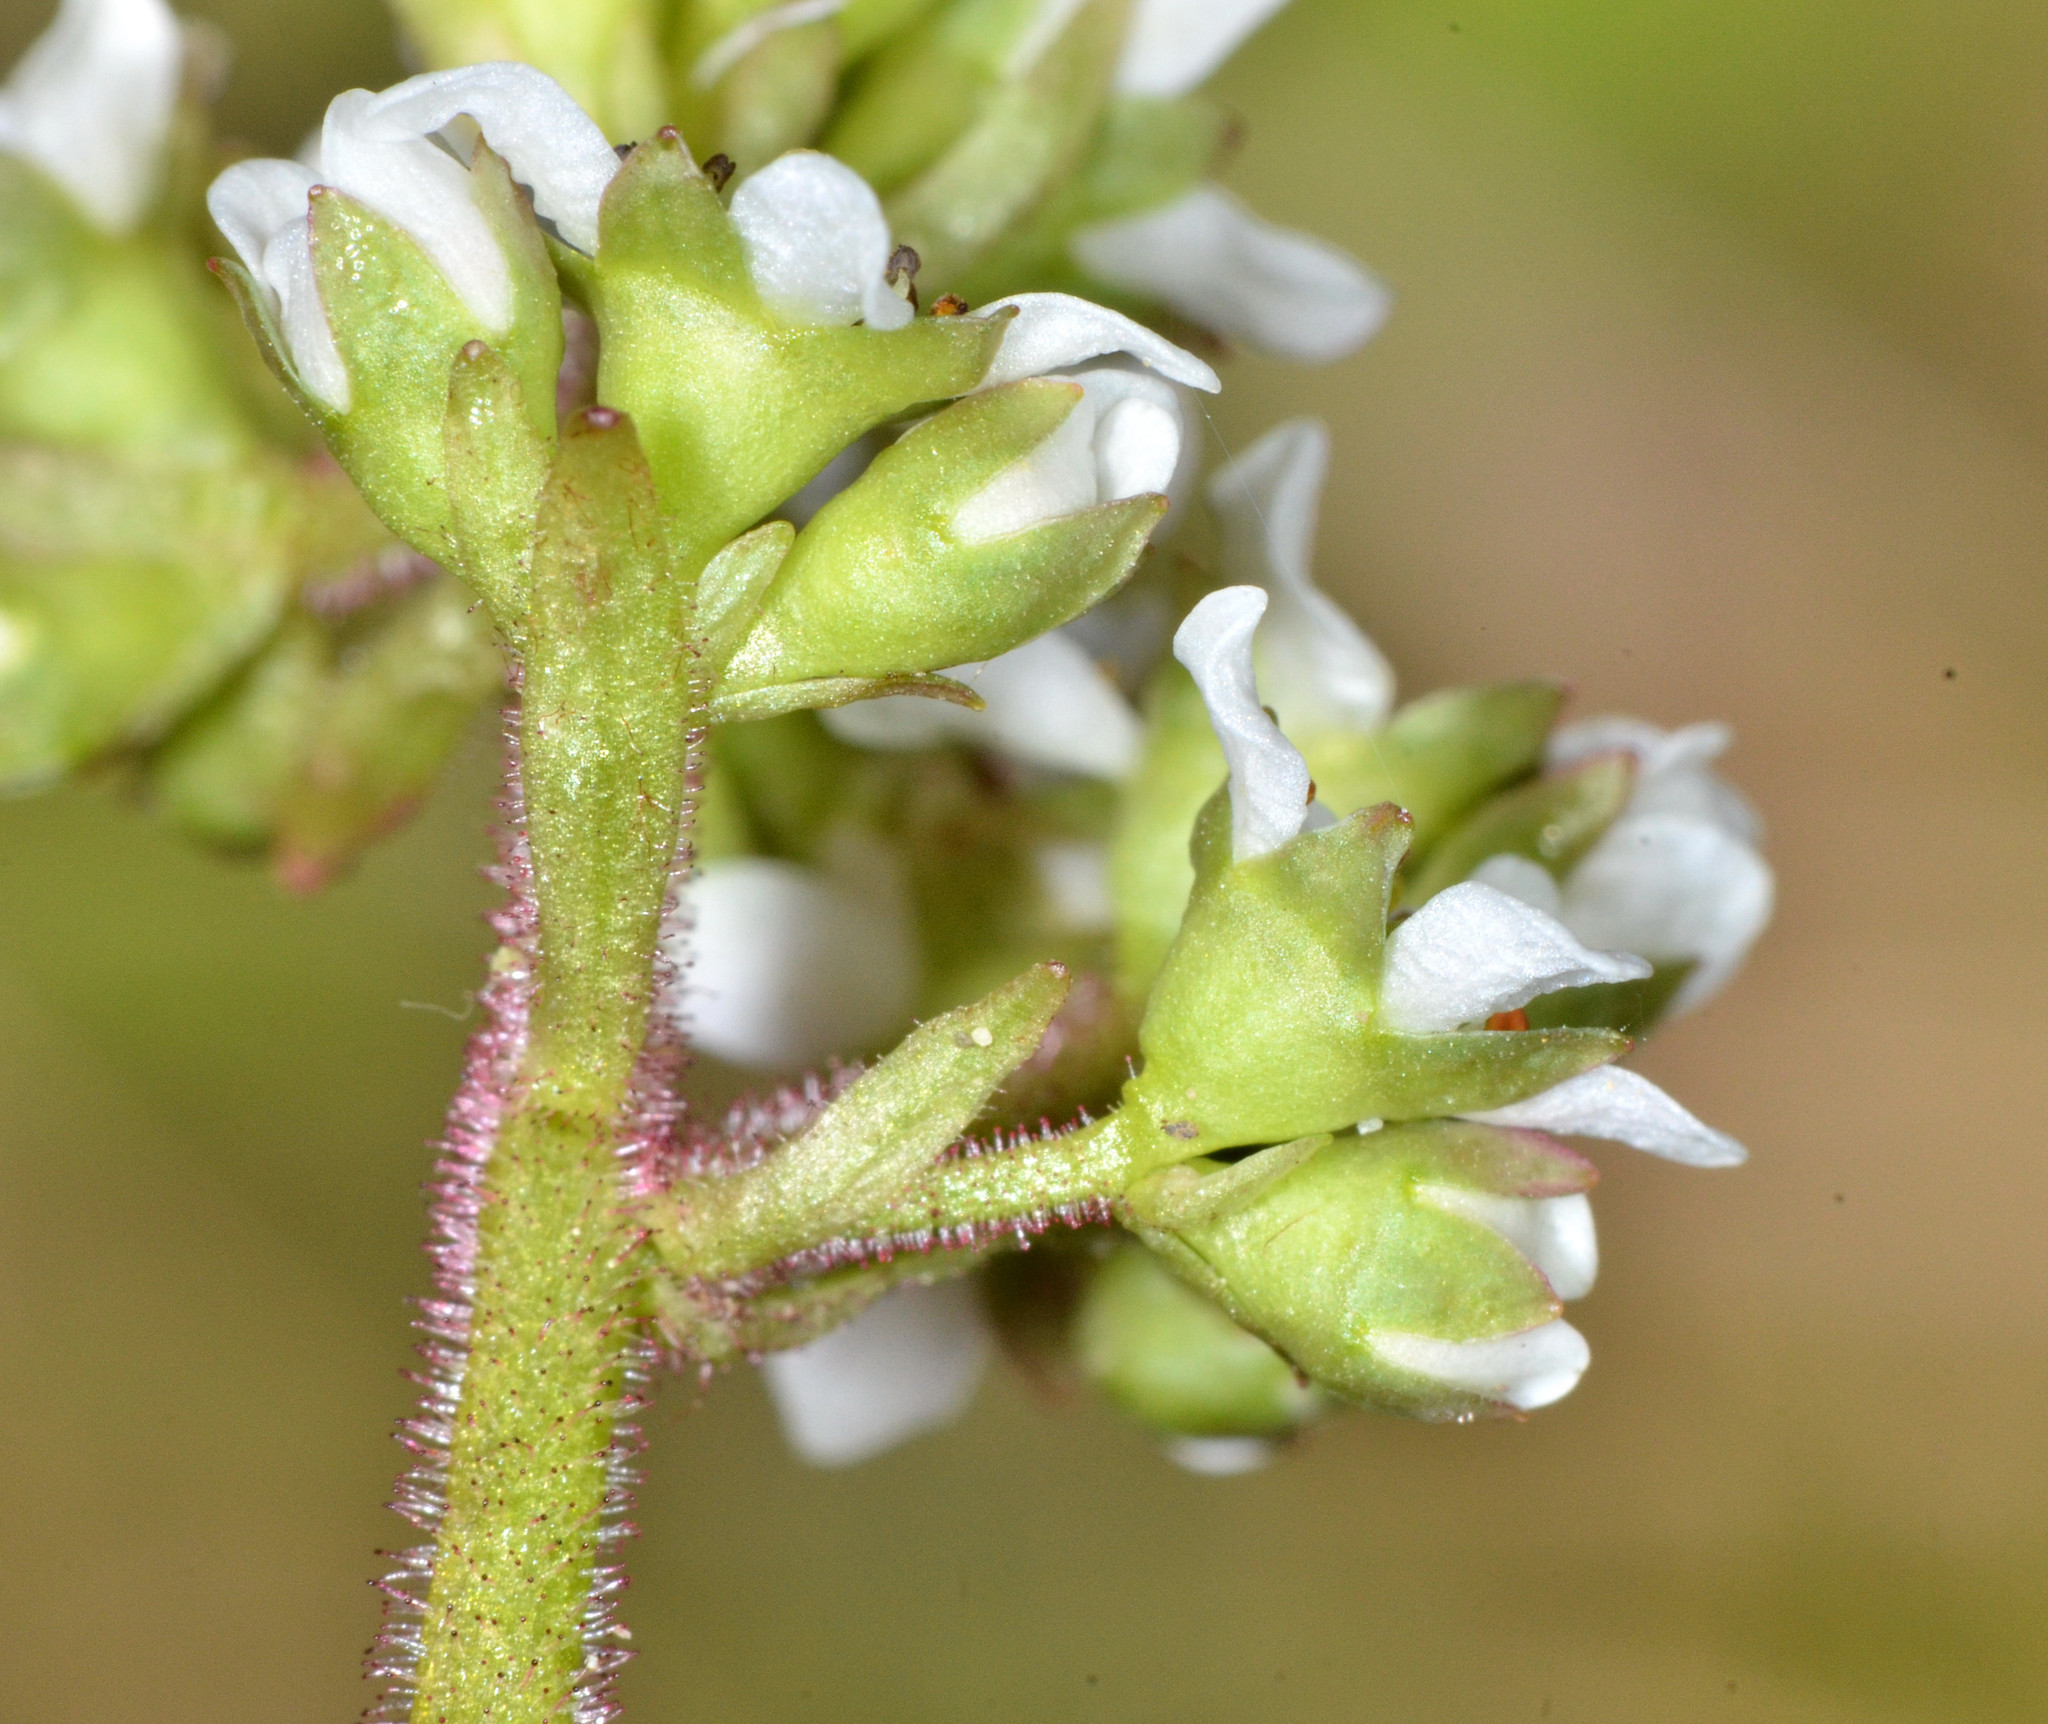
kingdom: Plantae
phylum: Tracheophyta
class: Magnoliopsida
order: Saxifragales
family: Saxifragaceae
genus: Micranthes
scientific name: Micranthes integrifolia
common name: Wholeleaf saxifrage
